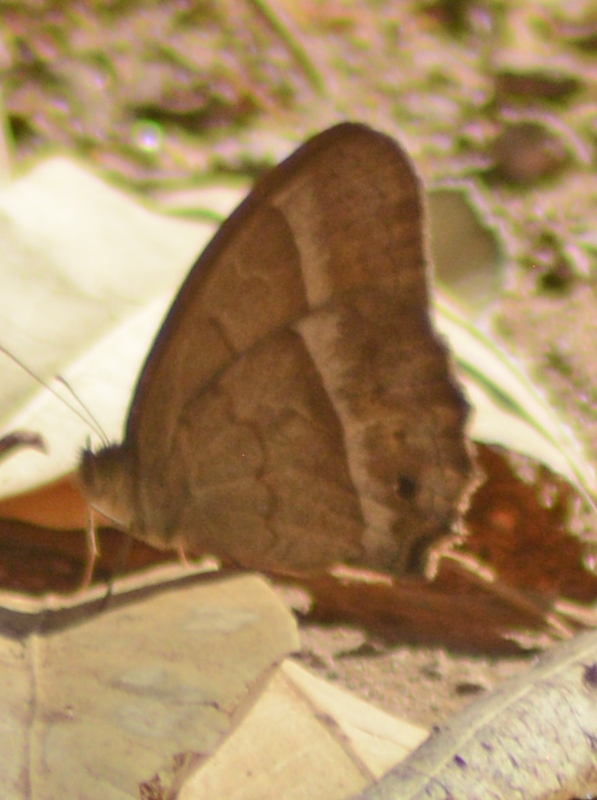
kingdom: Animalia
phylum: Arthropoda
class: Insecta
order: Lepidoptera
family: Nymphalidae
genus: Vareuptychia
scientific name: Vareuptychia similis
